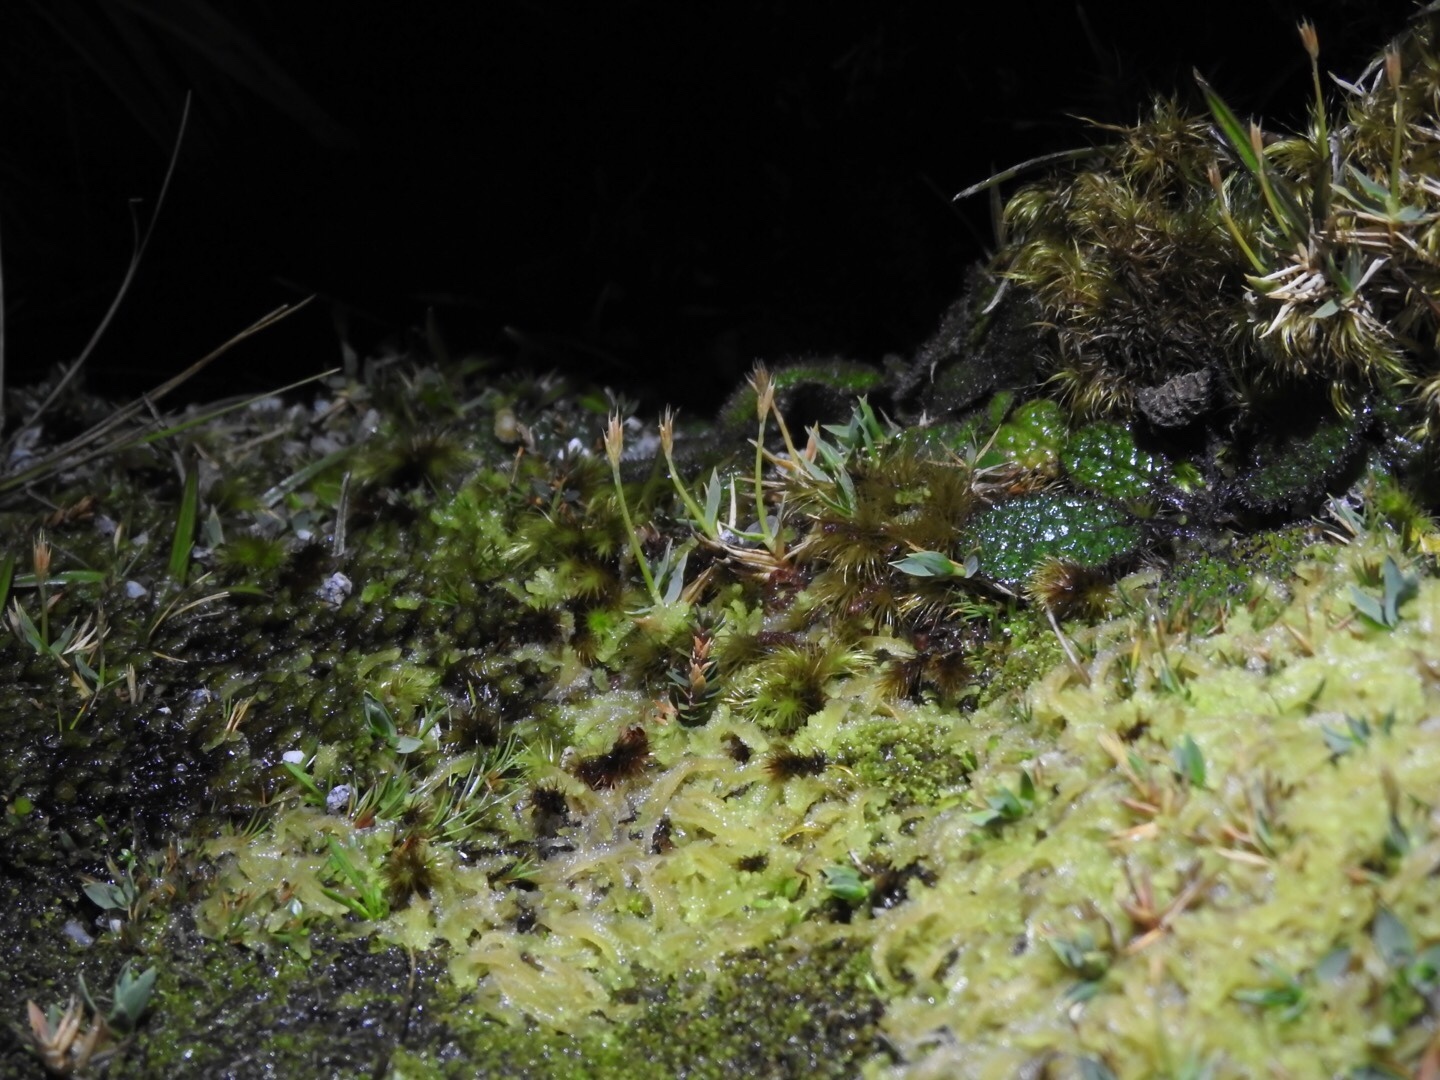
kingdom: Plantae
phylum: Tracheophyta
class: Liliopsida
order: Poales
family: Poaceae
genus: Zotovia
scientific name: Zotovia thomsonii
